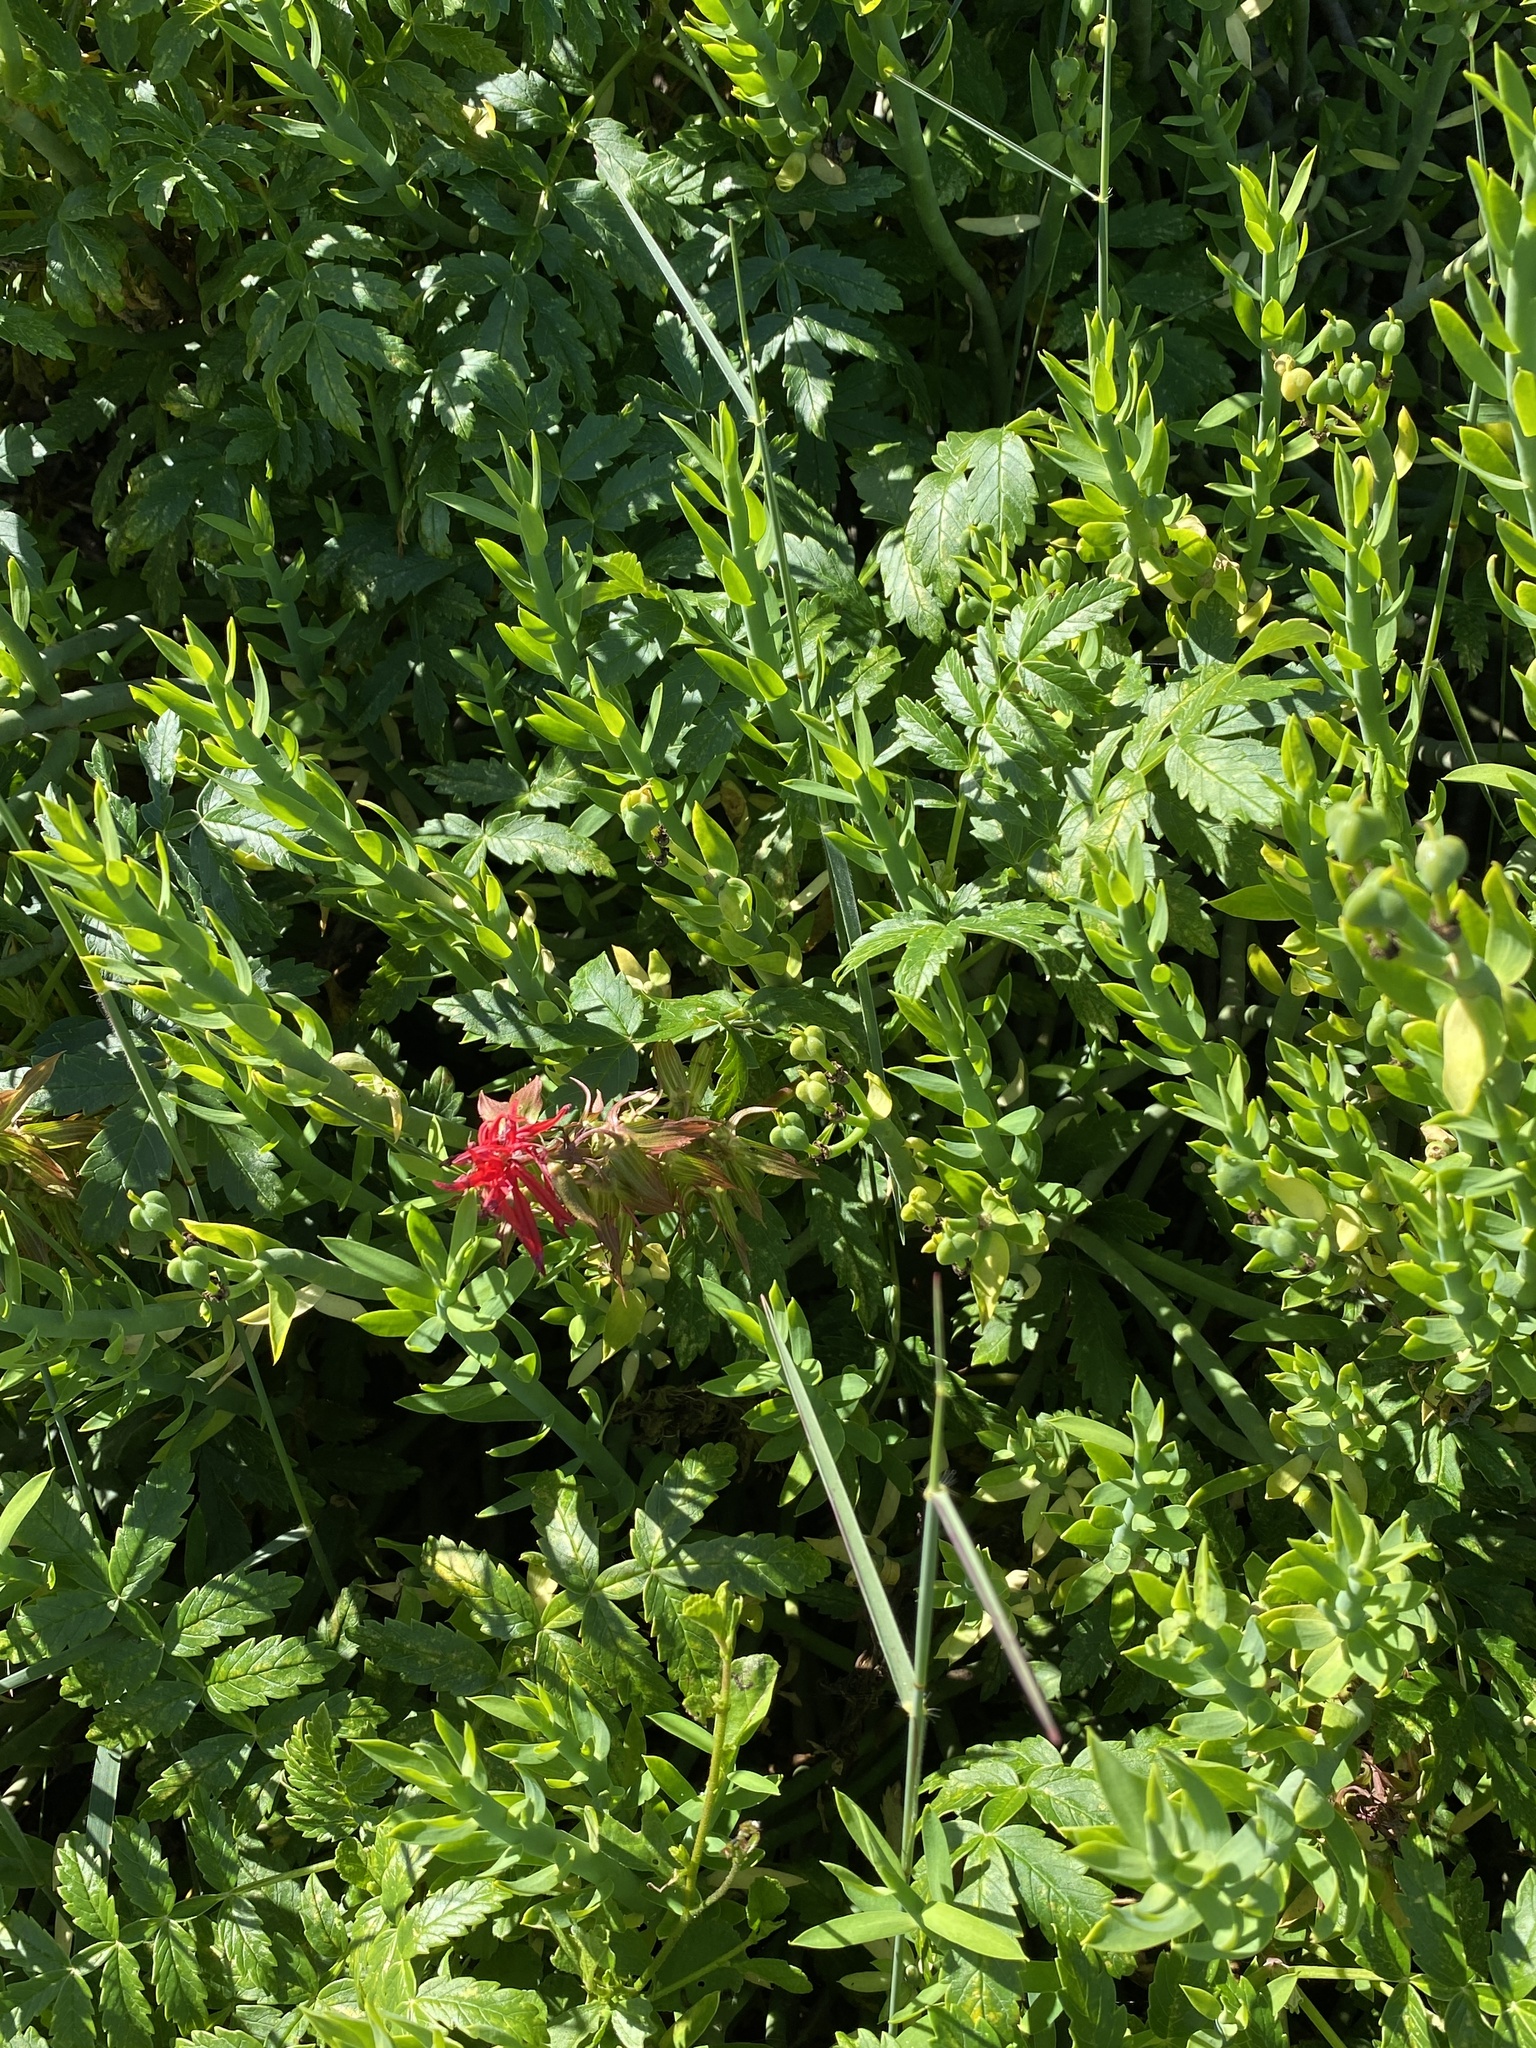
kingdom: Plantae
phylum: Tracheophyta
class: Magnoliopsida
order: Geraniales
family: Melianthaceae
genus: Melianthus
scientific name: Melianthus elongatus
